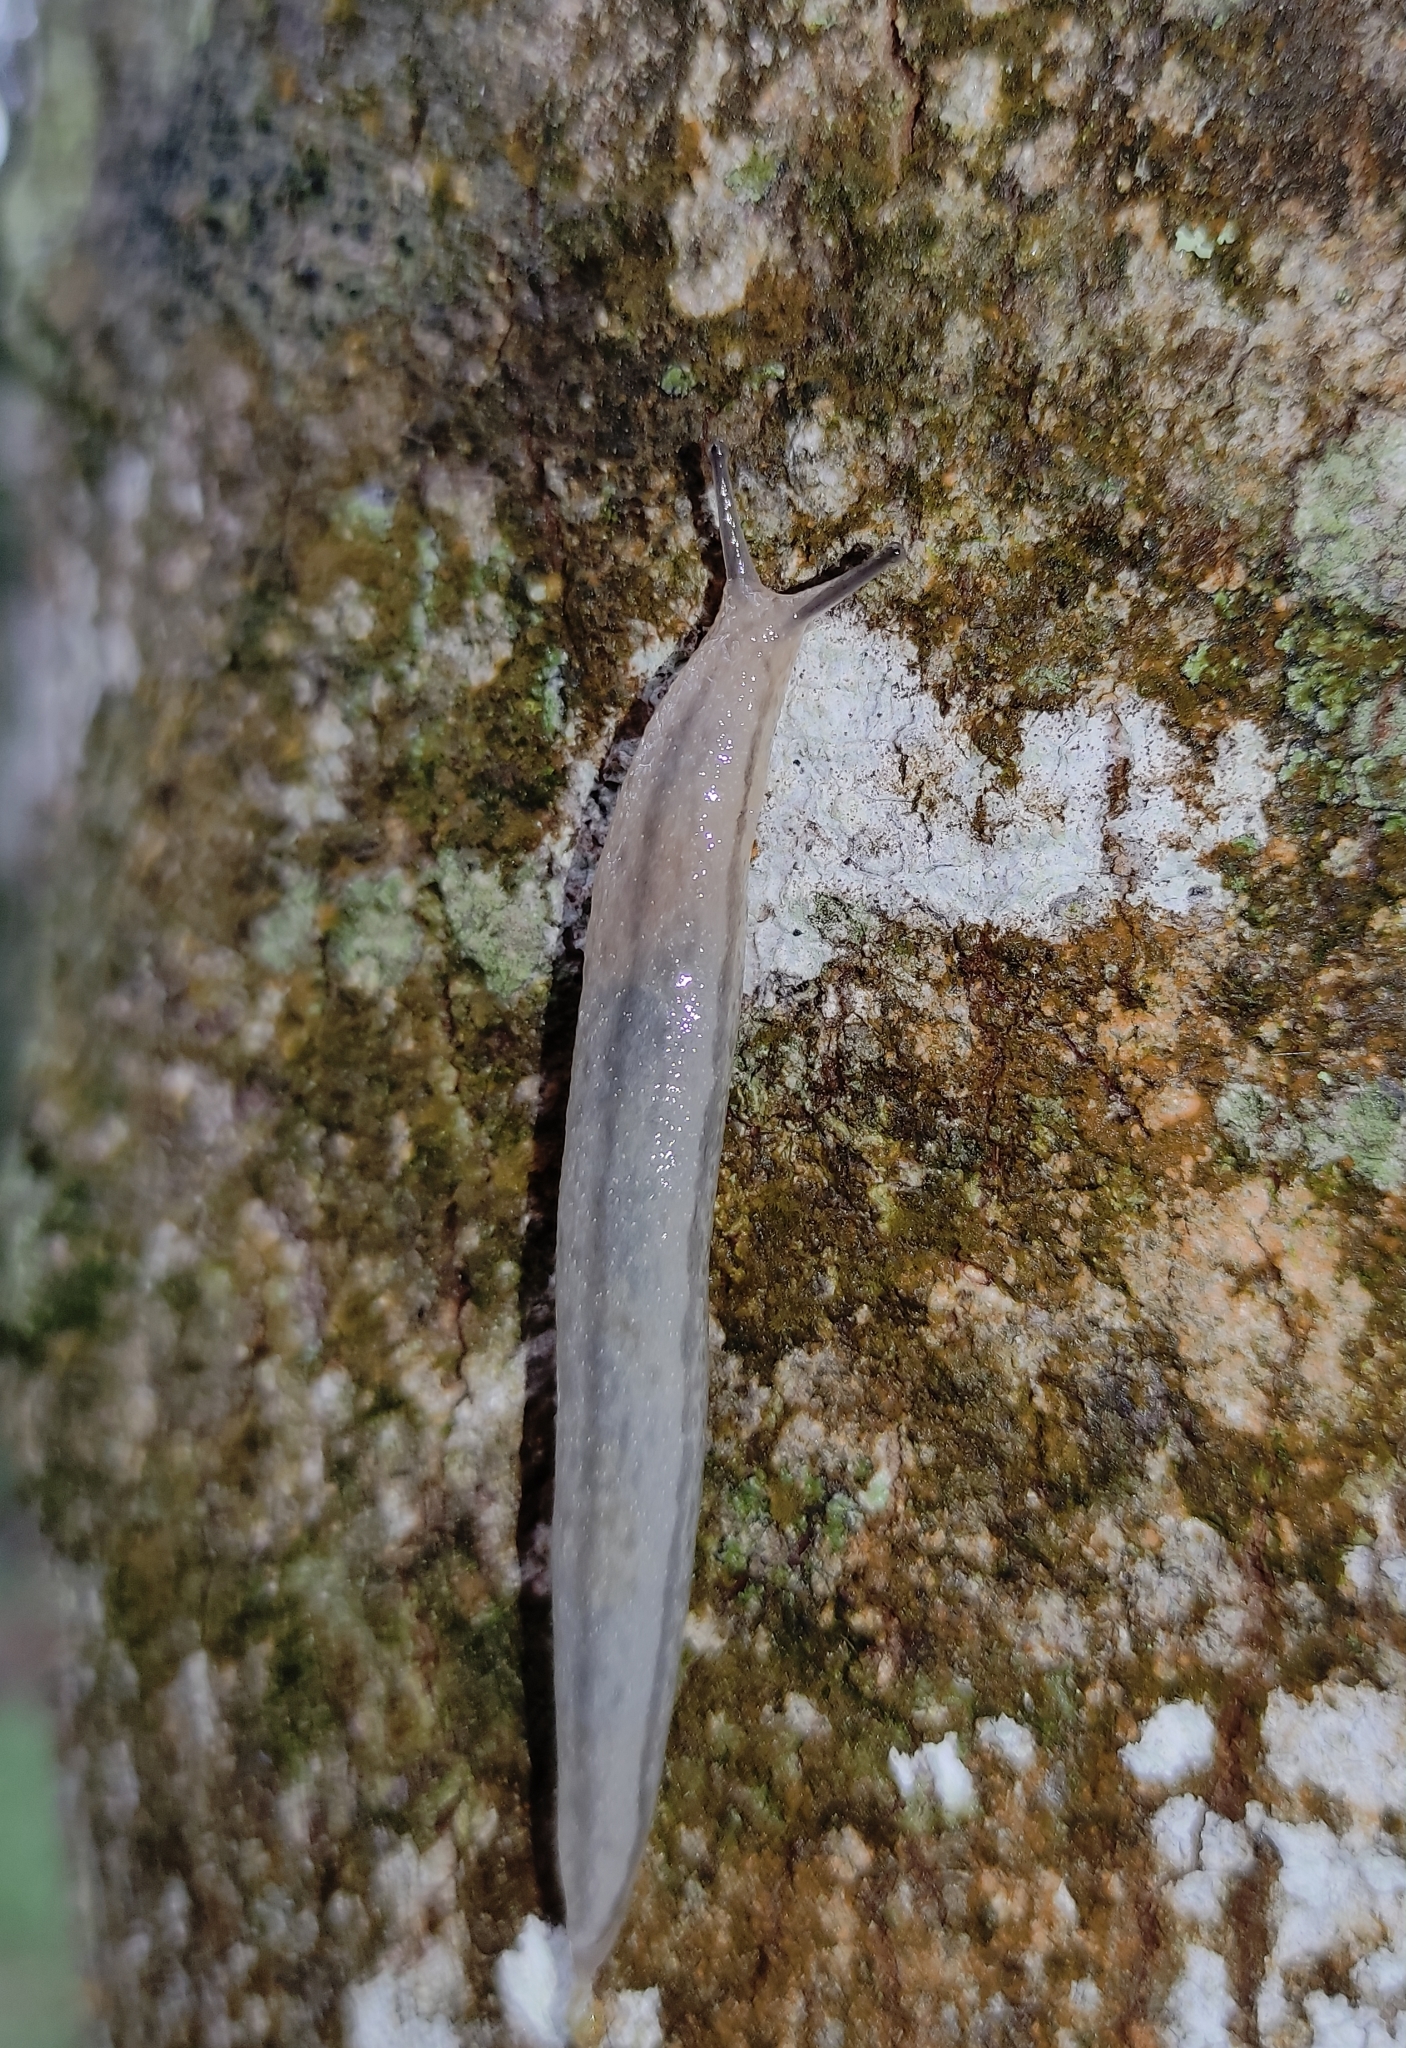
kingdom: Animalia
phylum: Mollusca
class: Gastropoda
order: Stylommatophora
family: Philomycidae
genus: Meghimatium
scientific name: Meghimatium pictum
